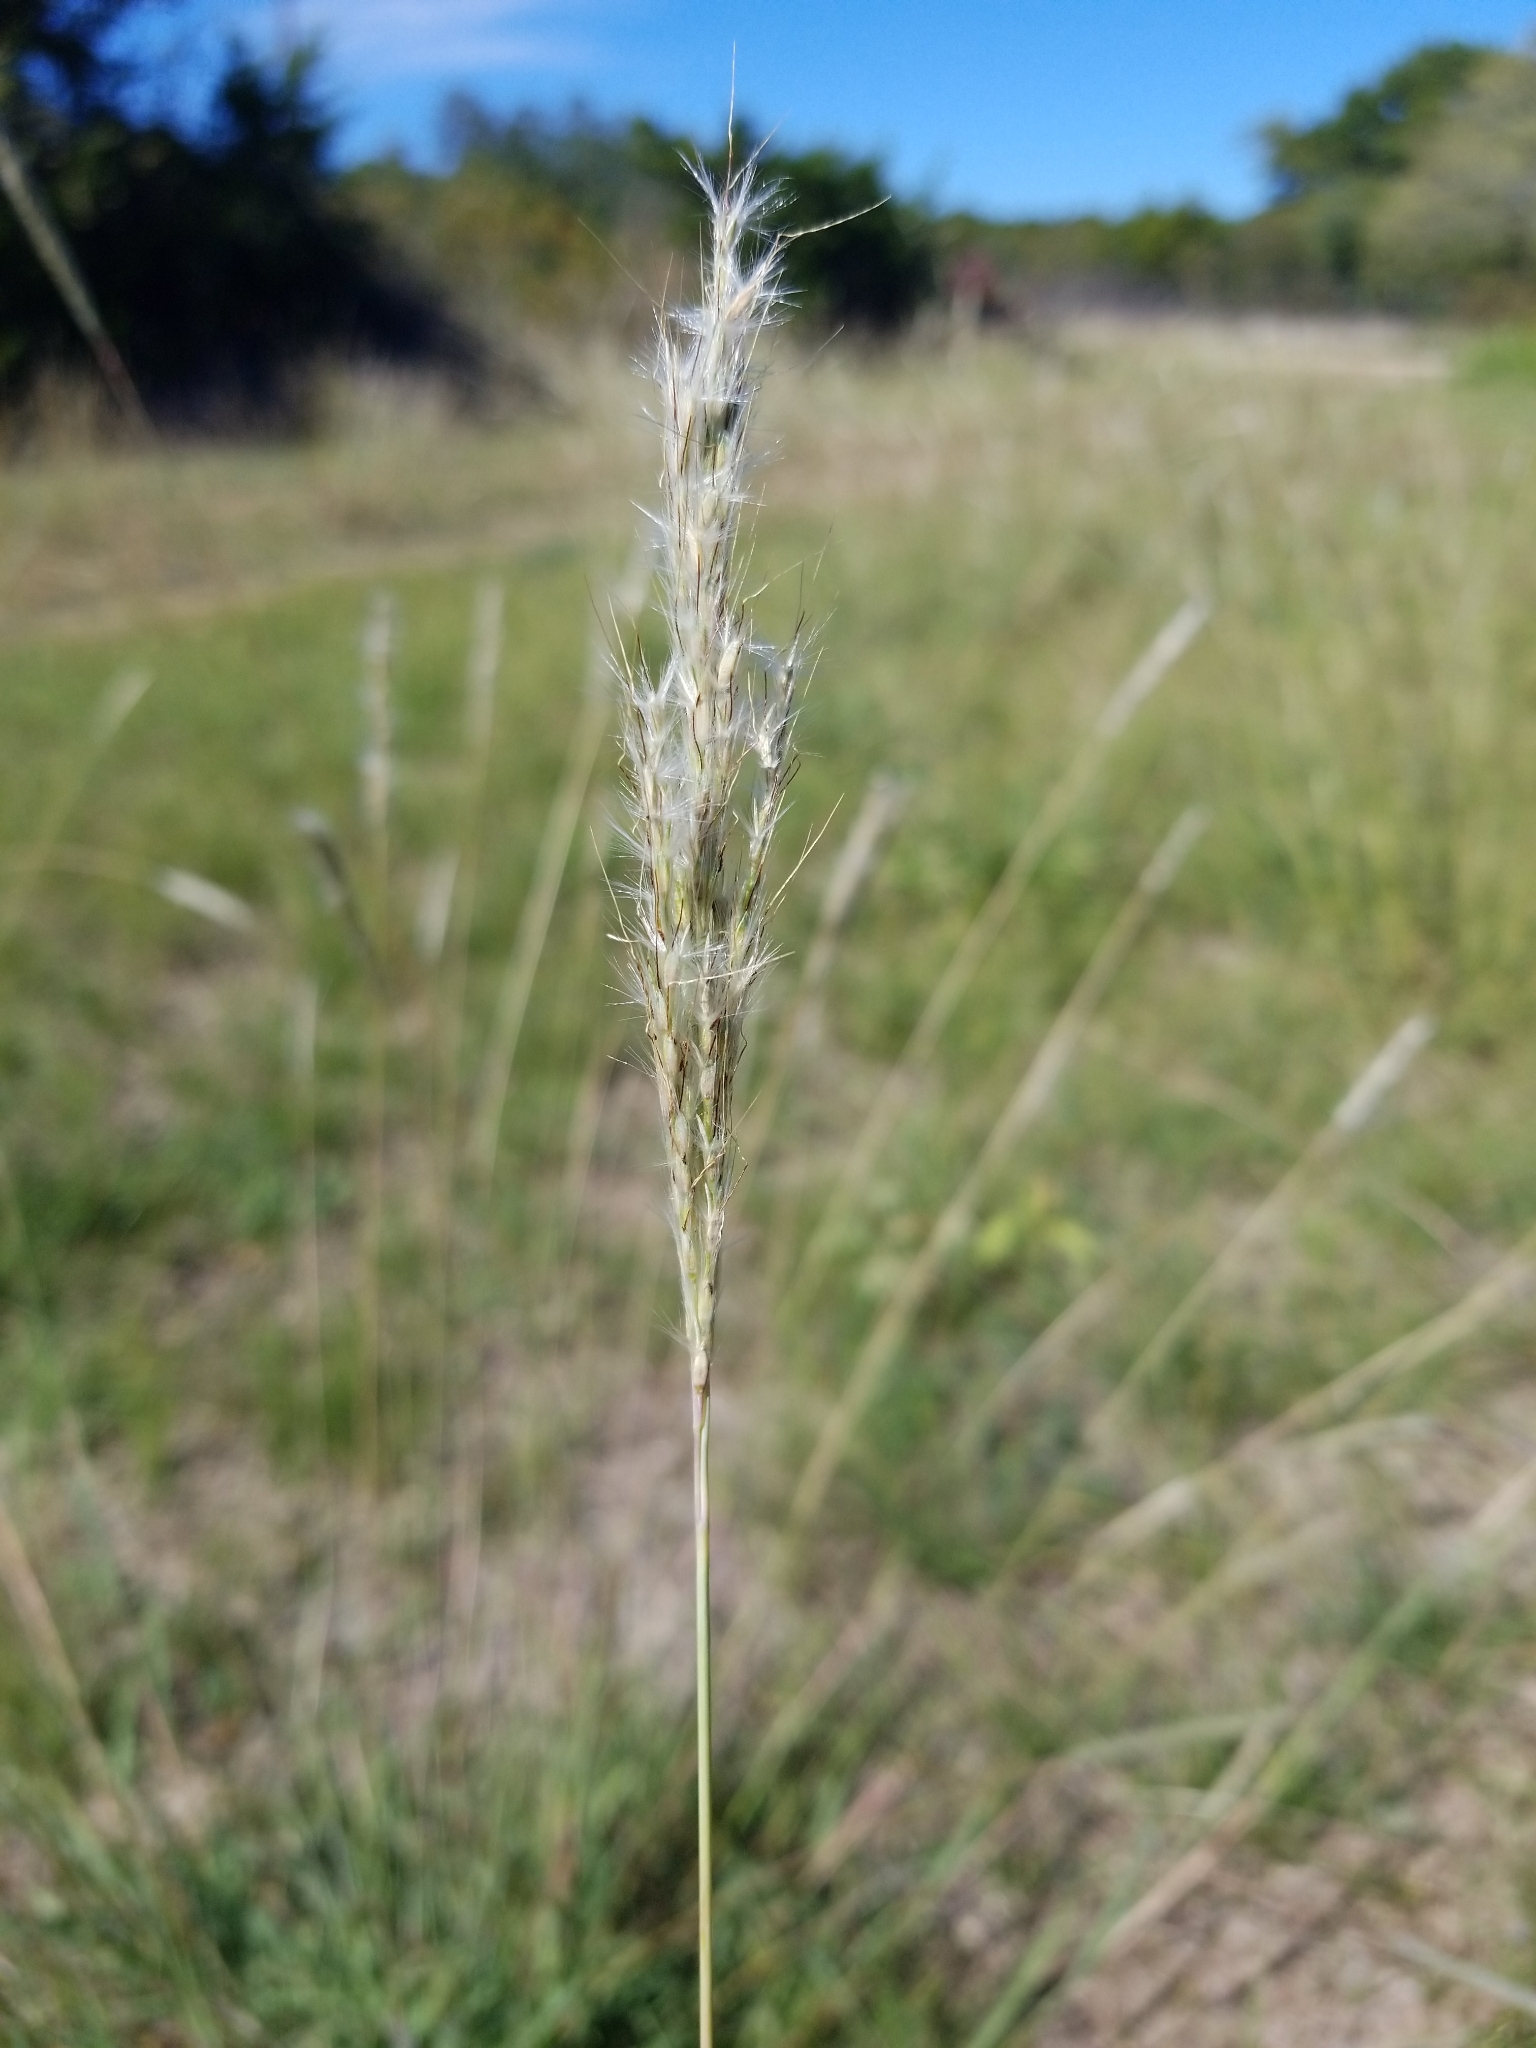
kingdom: Plantae
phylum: Tracheophyta
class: Liliopsida
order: Poales
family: Poaceae
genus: Bothriochloa
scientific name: Bothriochloa torreyana
